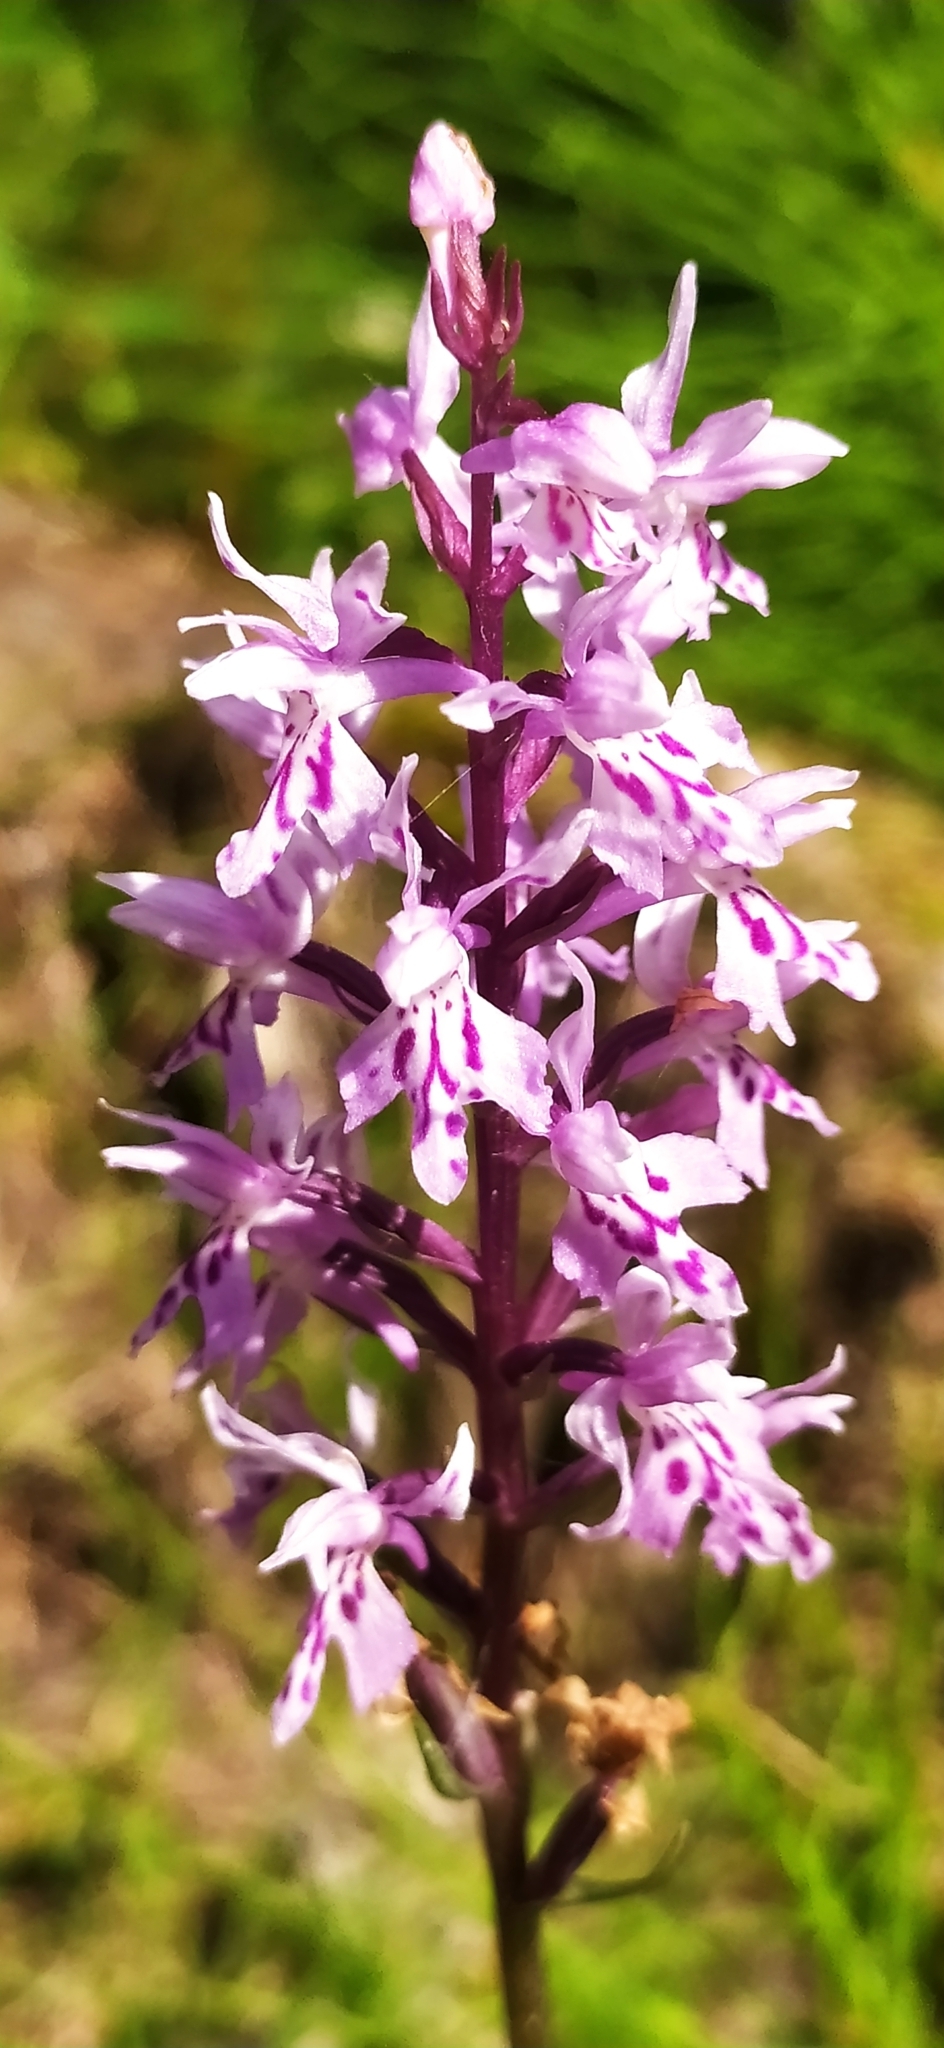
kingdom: Plantae
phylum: Tracheophyta
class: Liliopsida
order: Asparagales
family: Orchidaceae
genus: Dactylorhiza
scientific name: Dactylorhiza maculata
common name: Heath spotted-orchid
